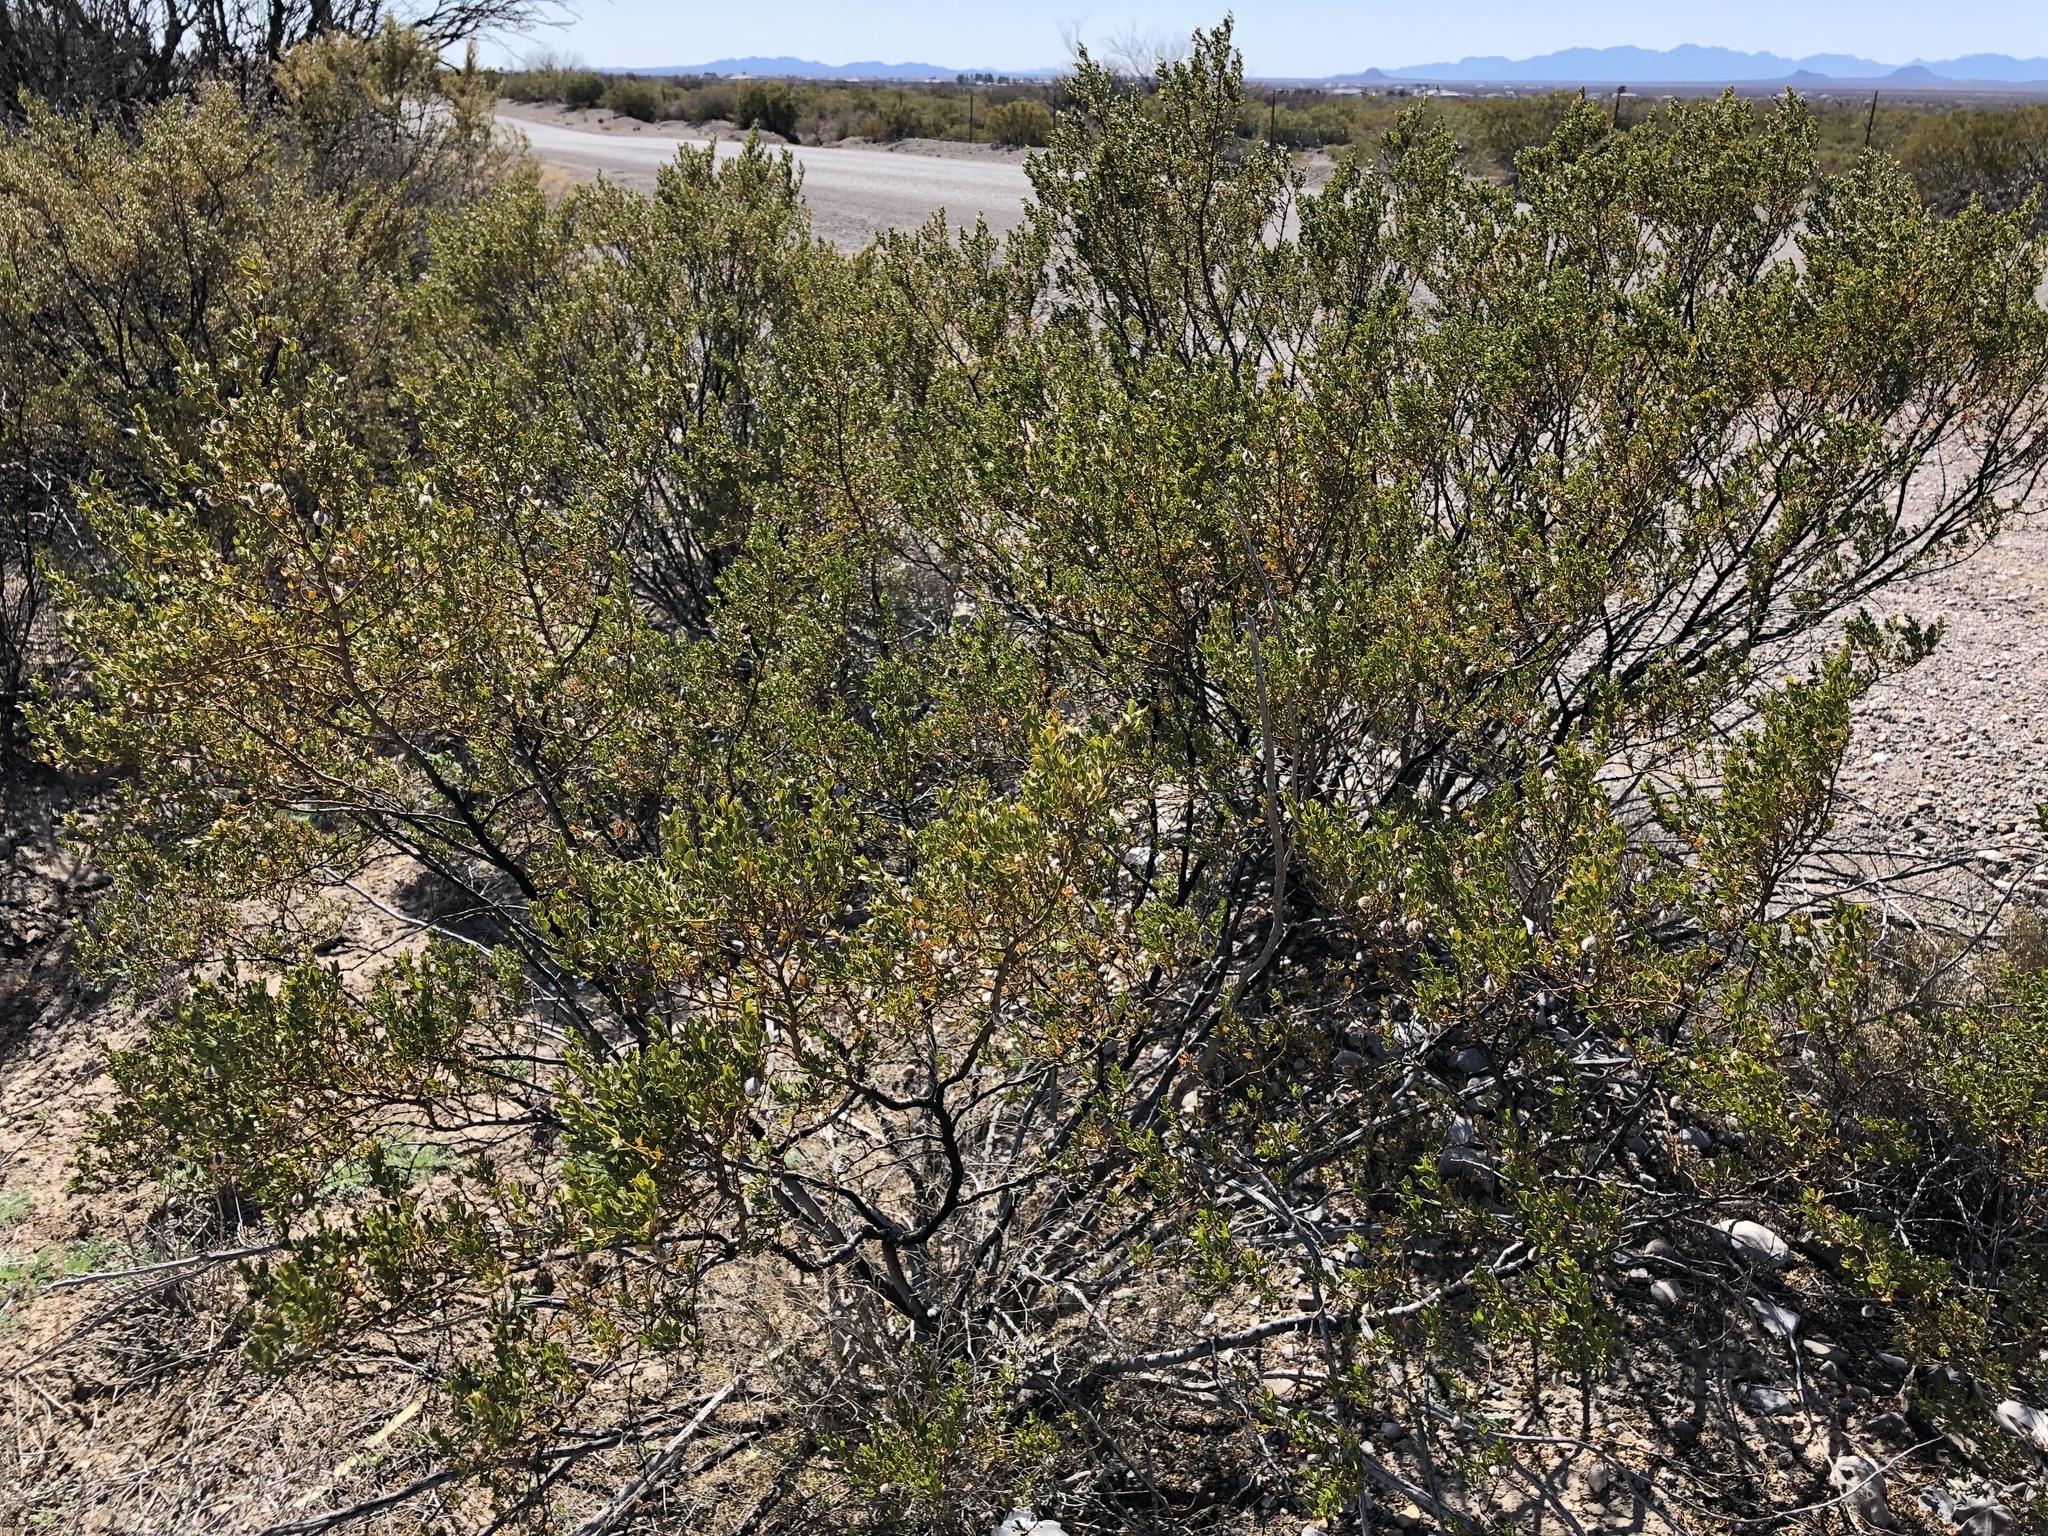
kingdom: Plantae
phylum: Tracheophyta
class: Magnoliopsida
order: Zygophyllales
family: Zygophyllaceae
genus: Larrea
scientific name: Larrea tridentata
